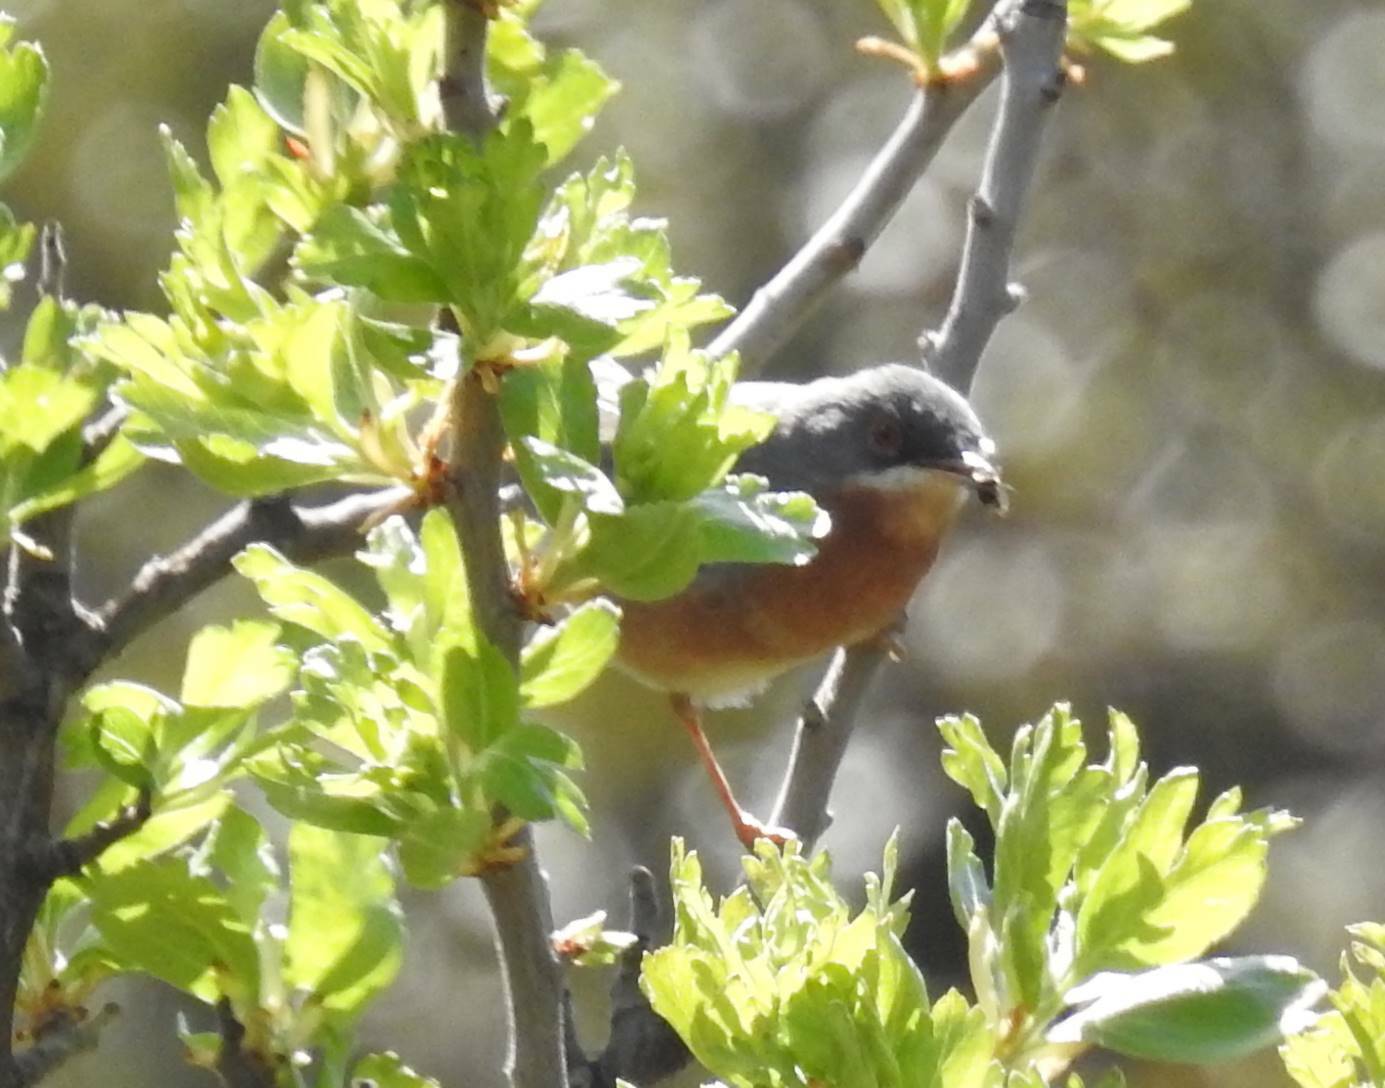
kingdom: Animalia
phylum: Chordata
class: Aves
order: Passeriformes
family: Sylviidae
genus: Curruca
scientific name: Curruca iberiae
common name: Western subalpine warbler
